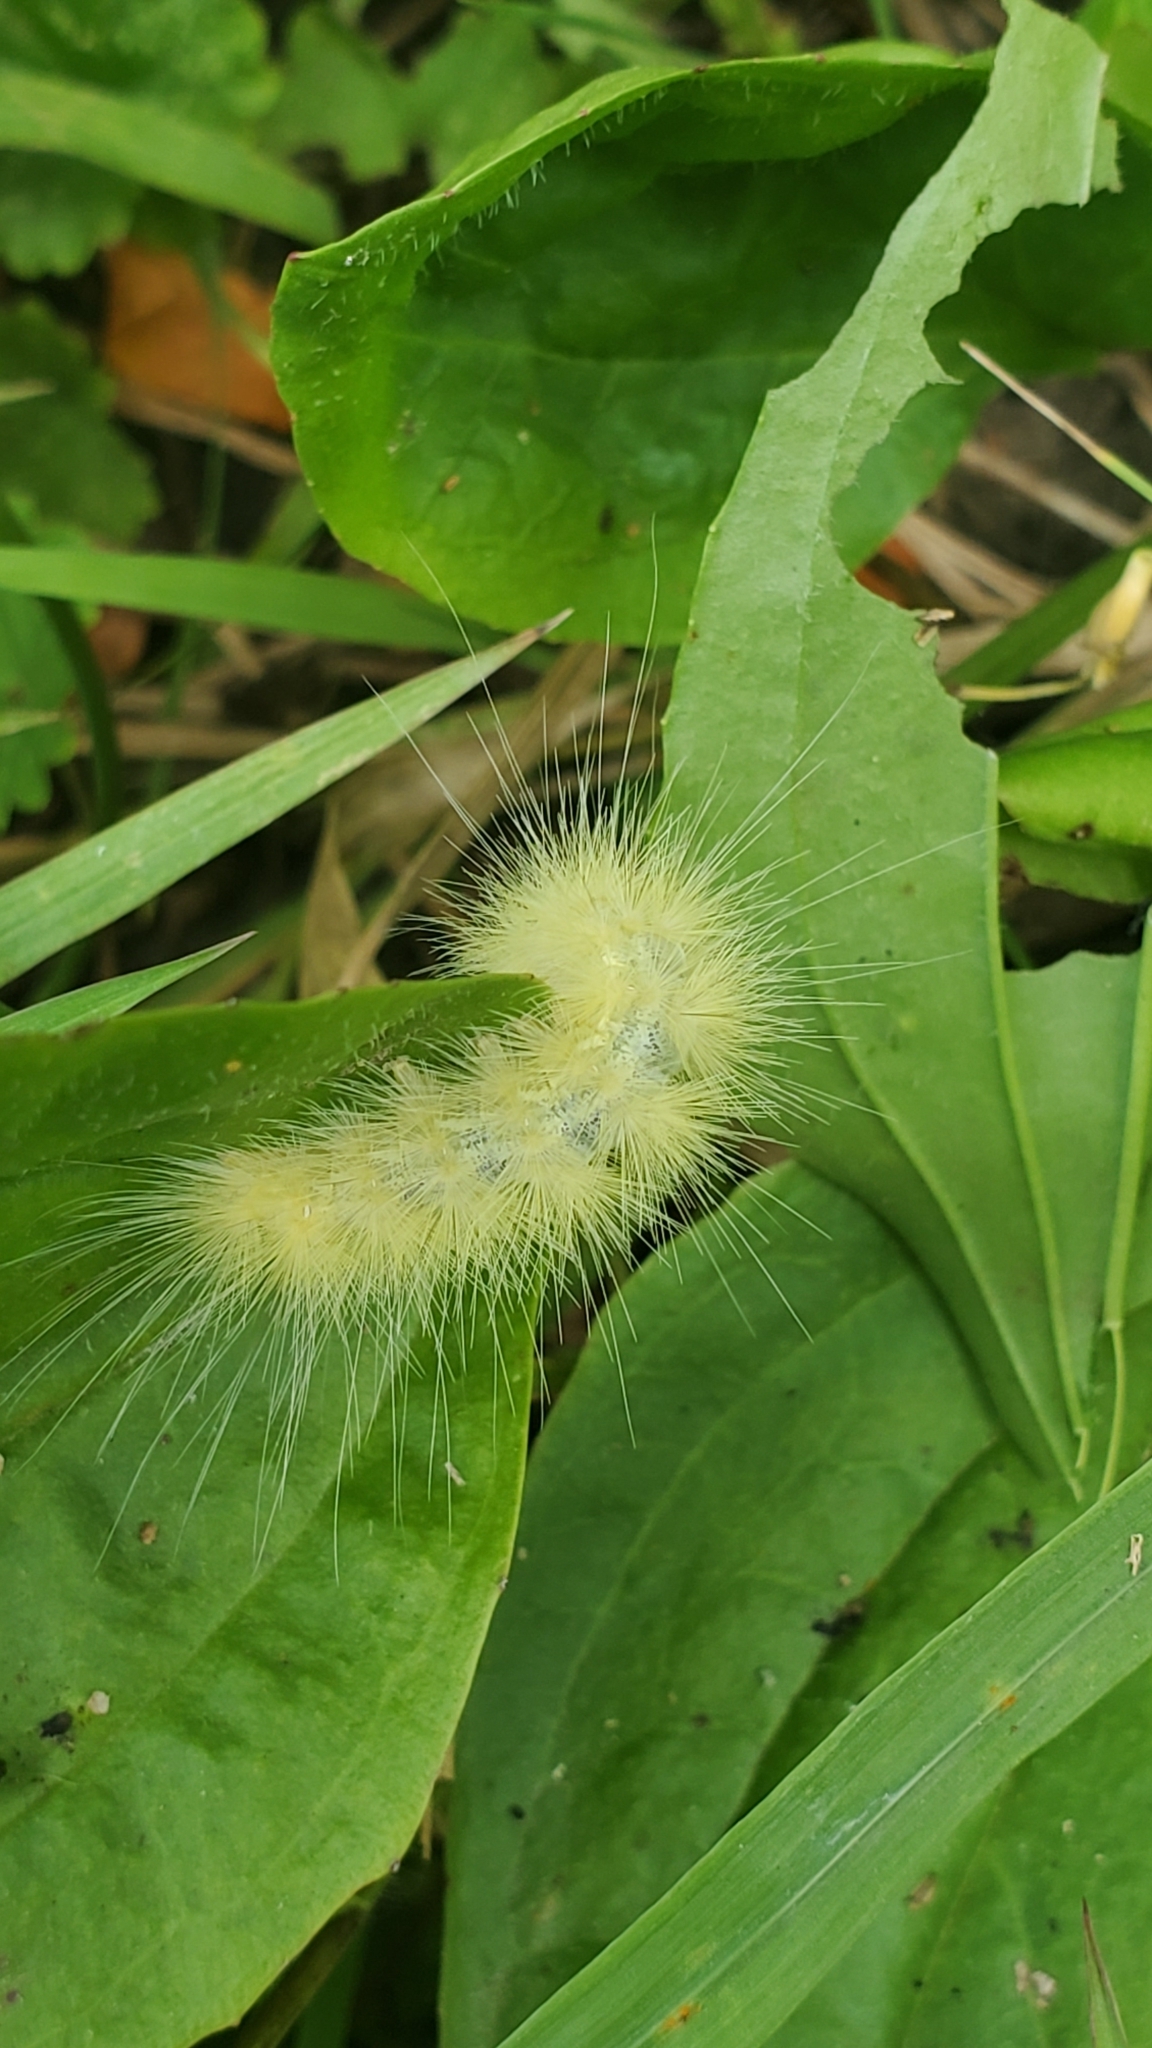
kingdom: Animalia
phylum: Arthropoda
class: Insecta
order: Lepidoptera
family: Erebidae
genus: Spilosoma
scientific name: Spilosoma virginica
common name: Virginia tiger moth
